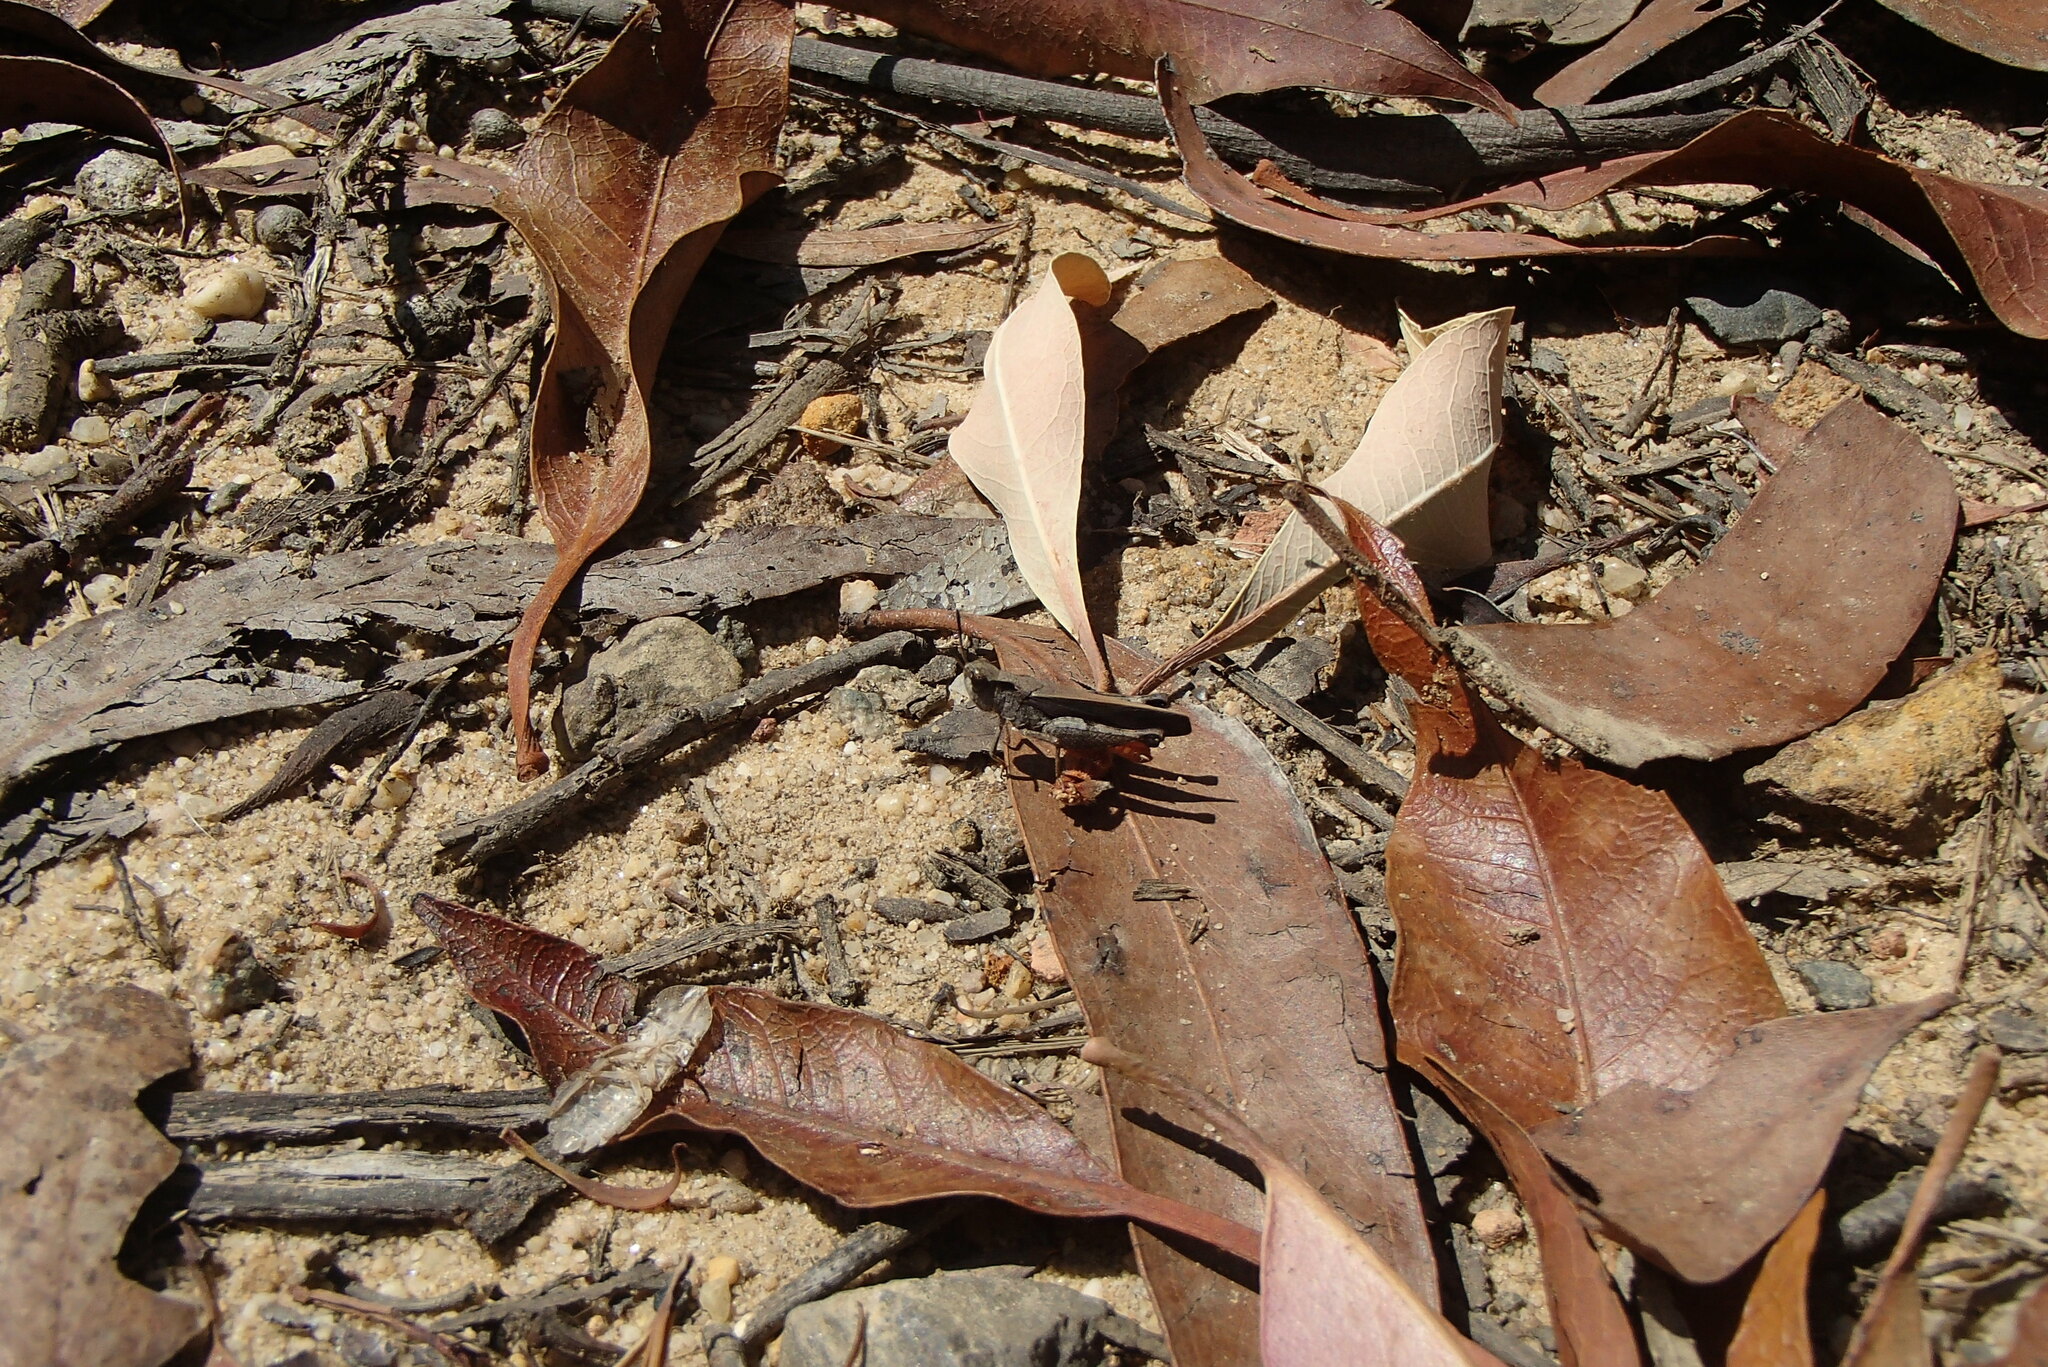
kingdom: Animalia
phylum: Arthropoda
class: Insecta
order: Orthoptera
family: Acrididae
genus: Cryptobothrus
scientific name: Cryptobothrus chrysophorus
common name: Golden bandwing
